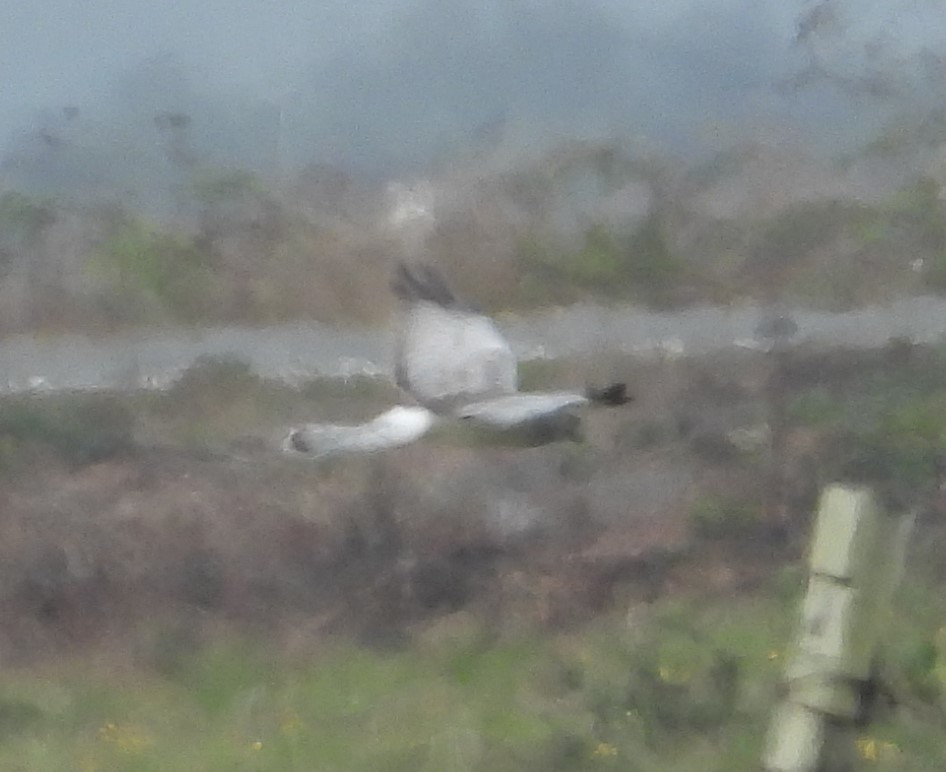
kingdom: Animalia
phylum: Chordata
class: Aves
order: Accipitriformes
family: Accipitridae
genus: Circus
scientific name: Circus cyaneus
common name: Hen harrier
